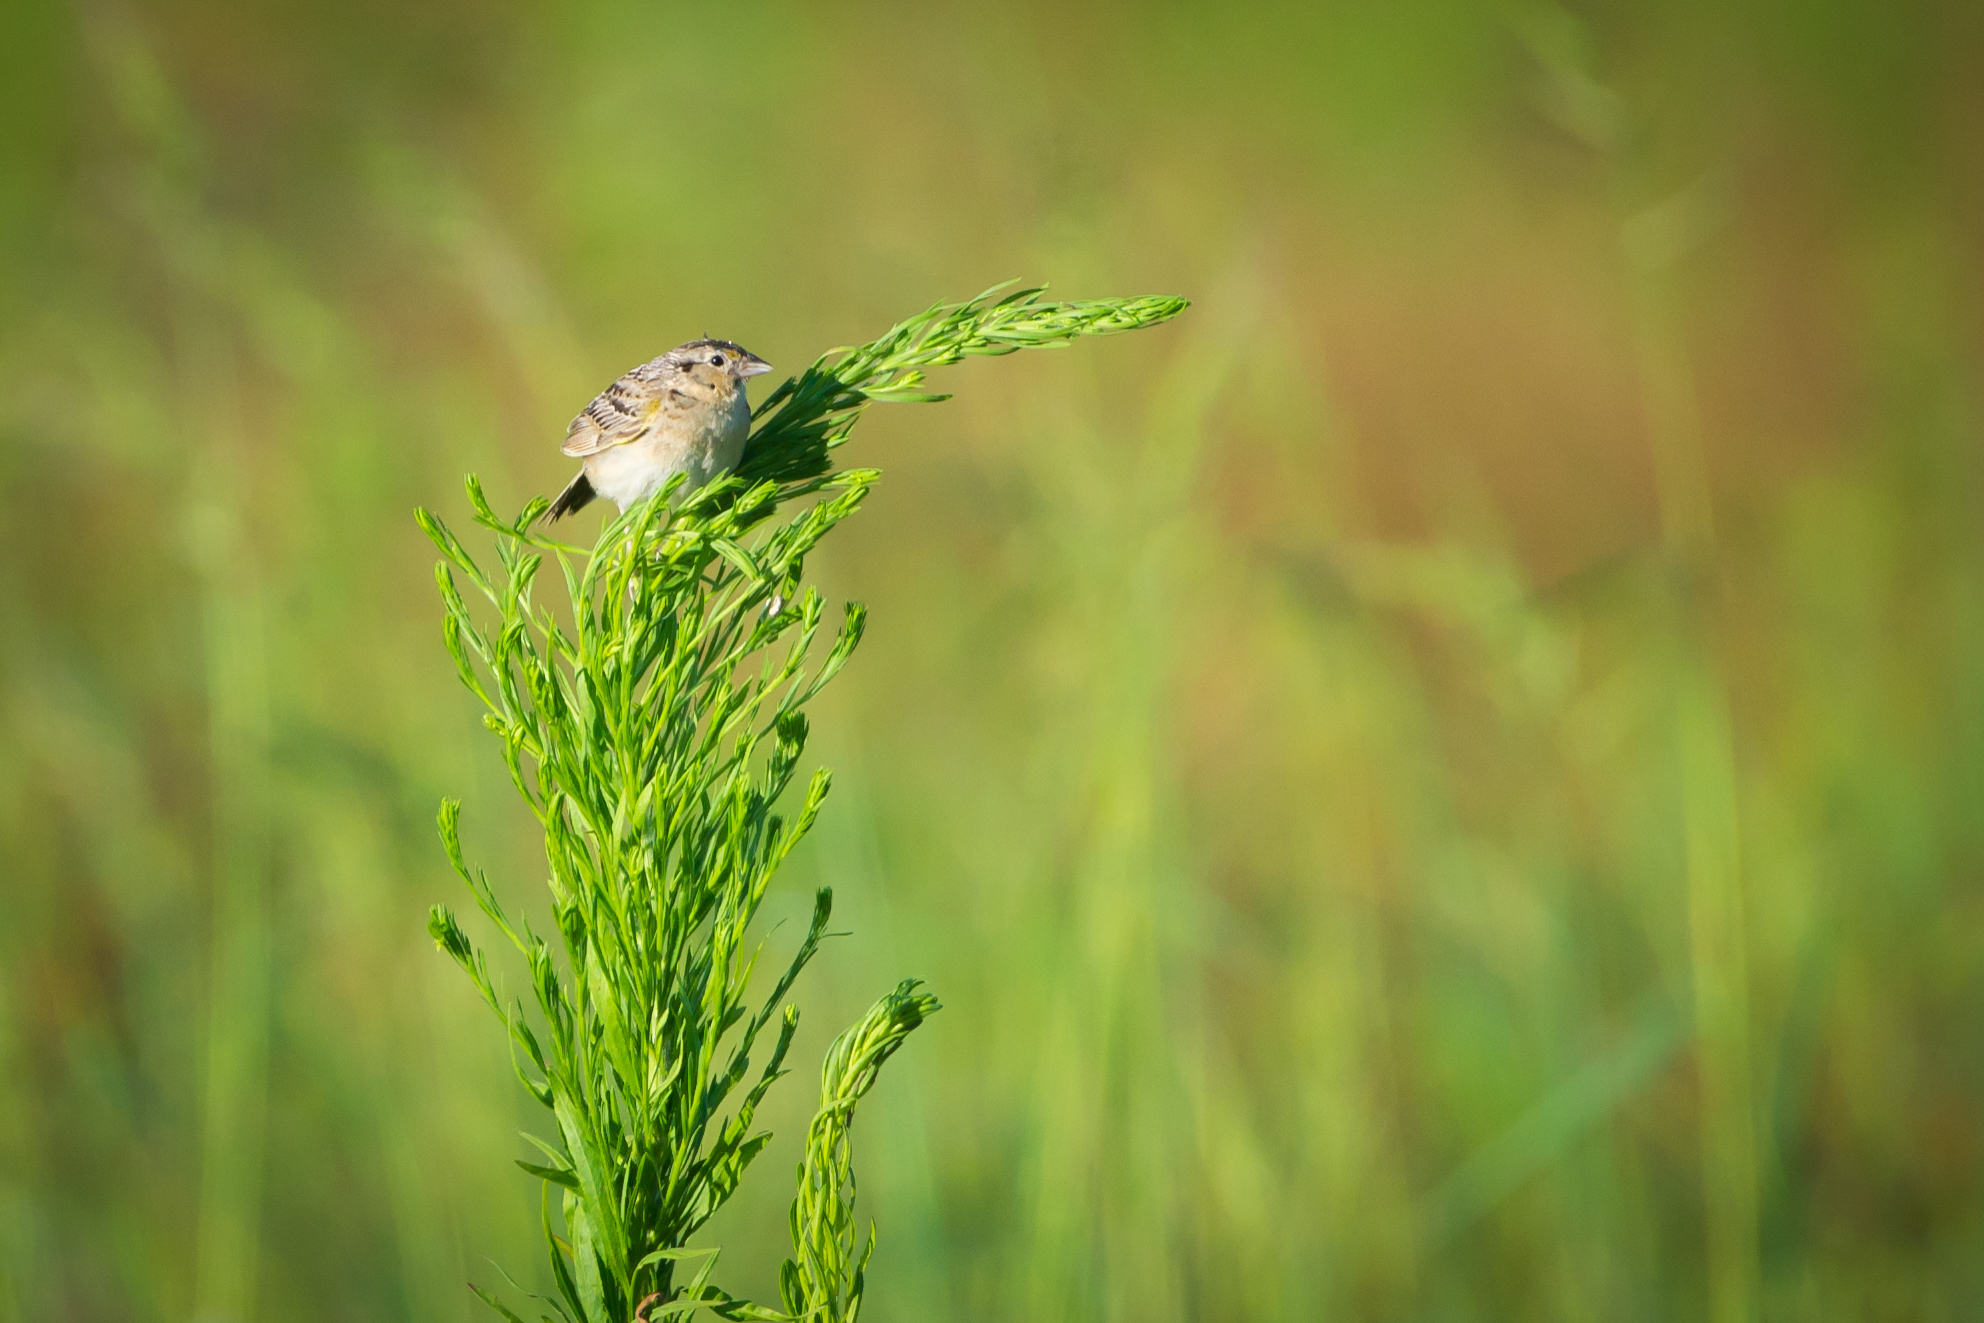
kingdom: Animalia
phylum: Chordata
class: Aves
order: Passeriformes
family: Passerellidae
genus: Ammodramus
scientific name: Ammodramus savannarum
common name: Grasshopper sparrow
